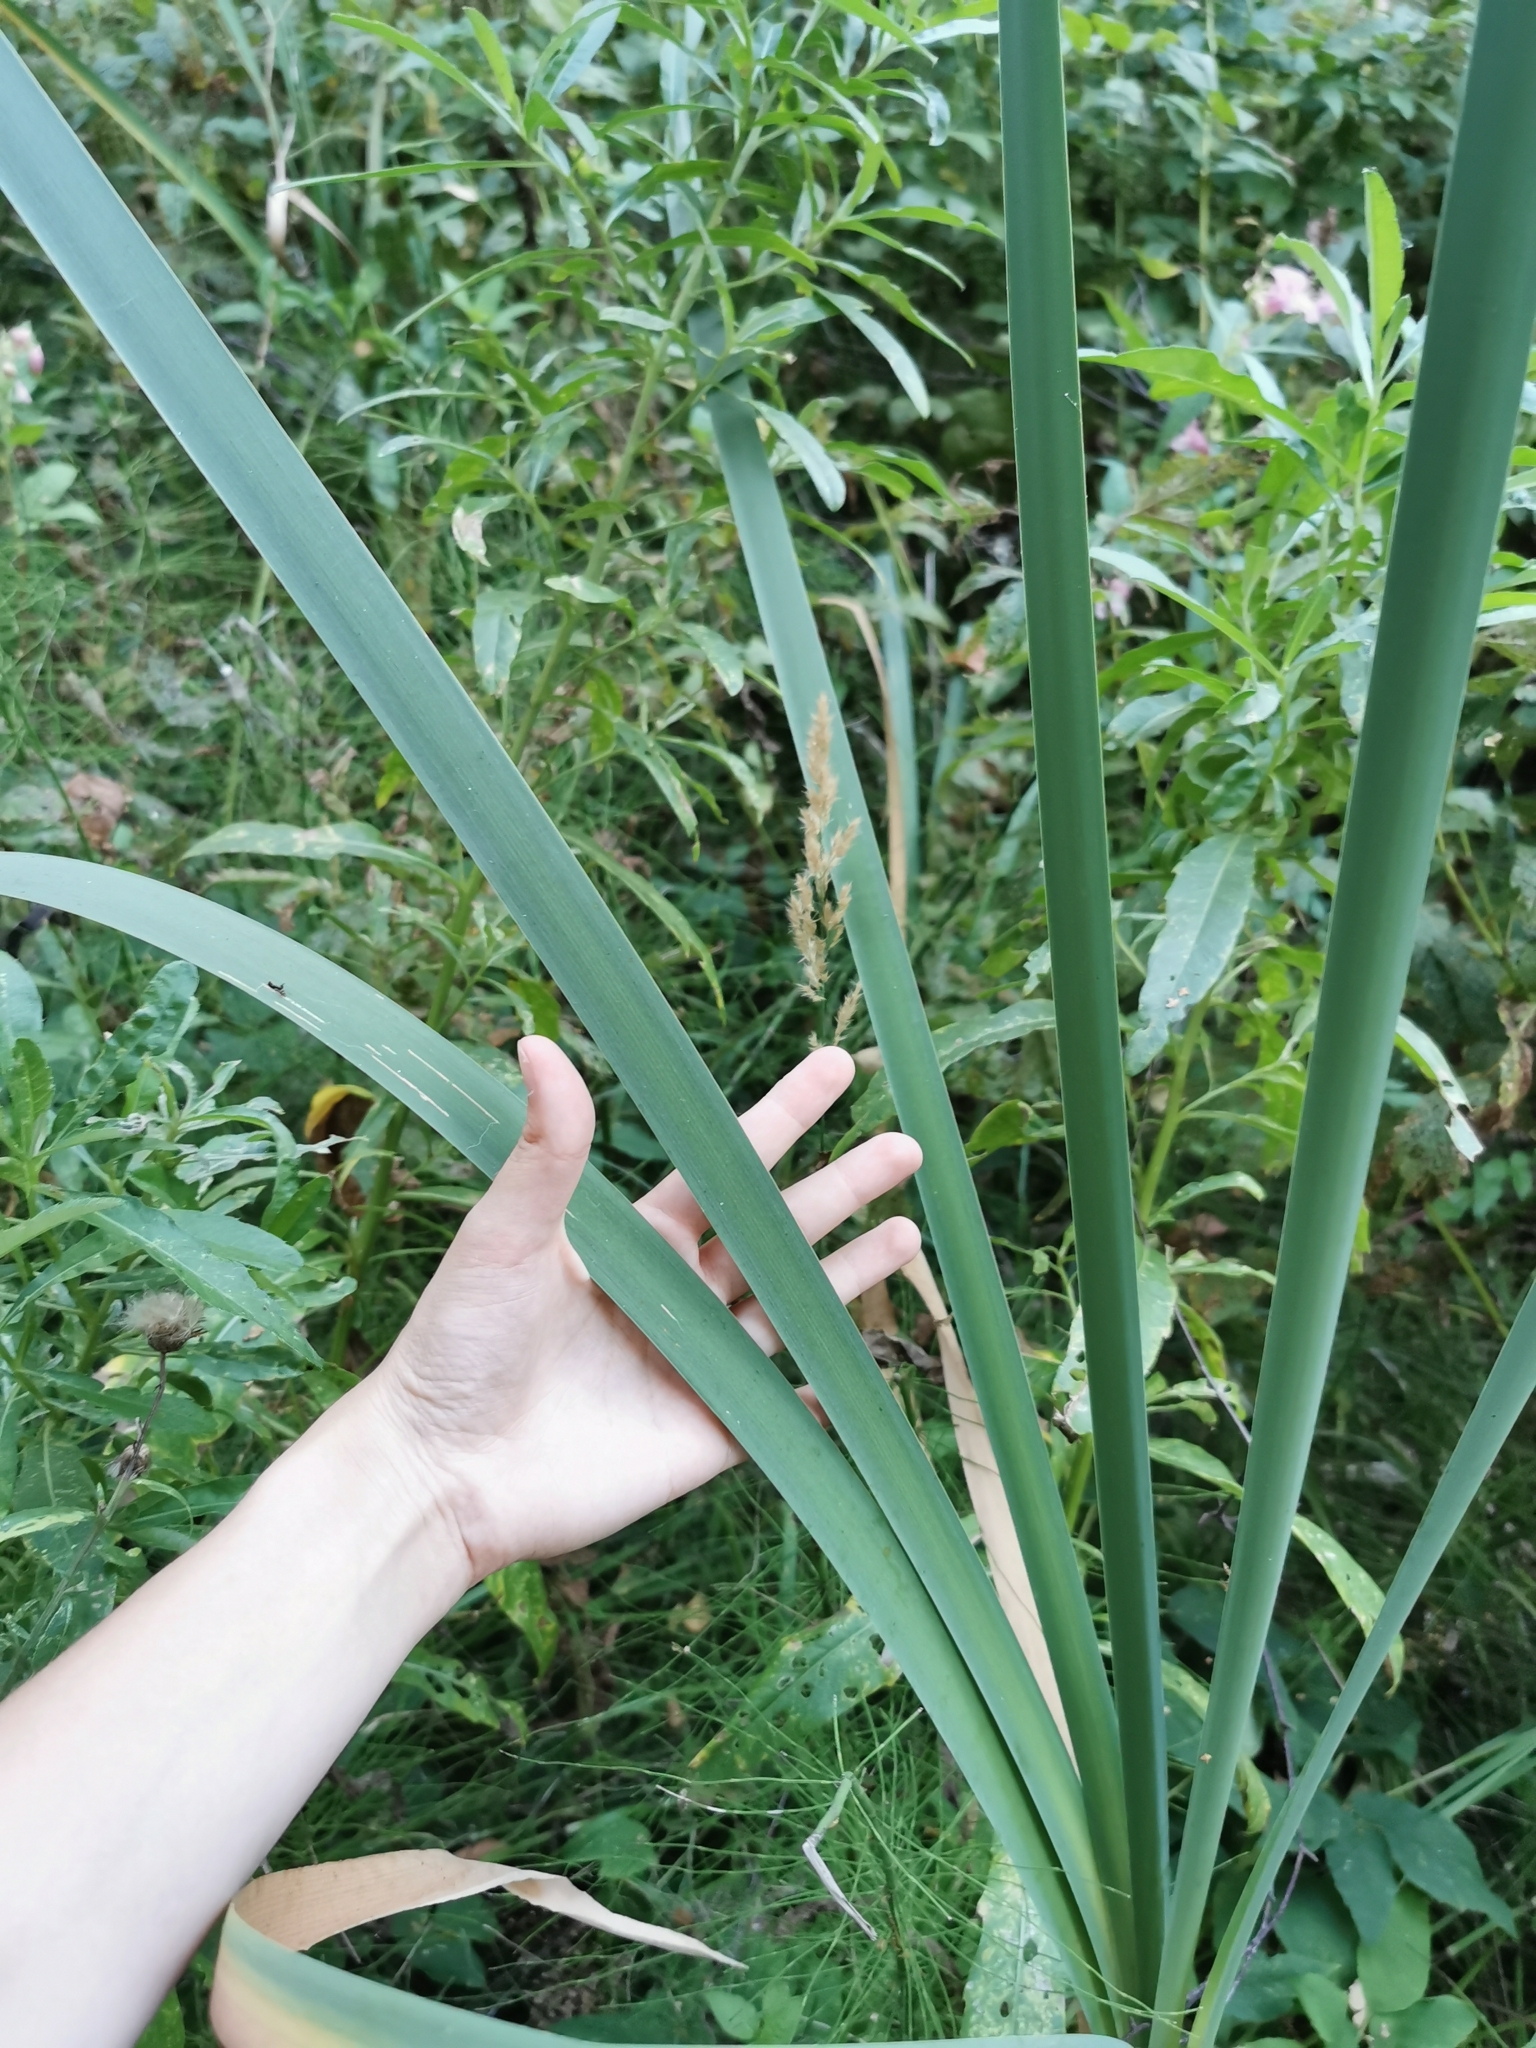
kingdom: Plantae
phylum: Tracheophyta
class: Liliopsida
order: Poales
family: Typhaceae
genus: Typha
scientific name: Typha latifolia
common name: Broadleaf cattail
